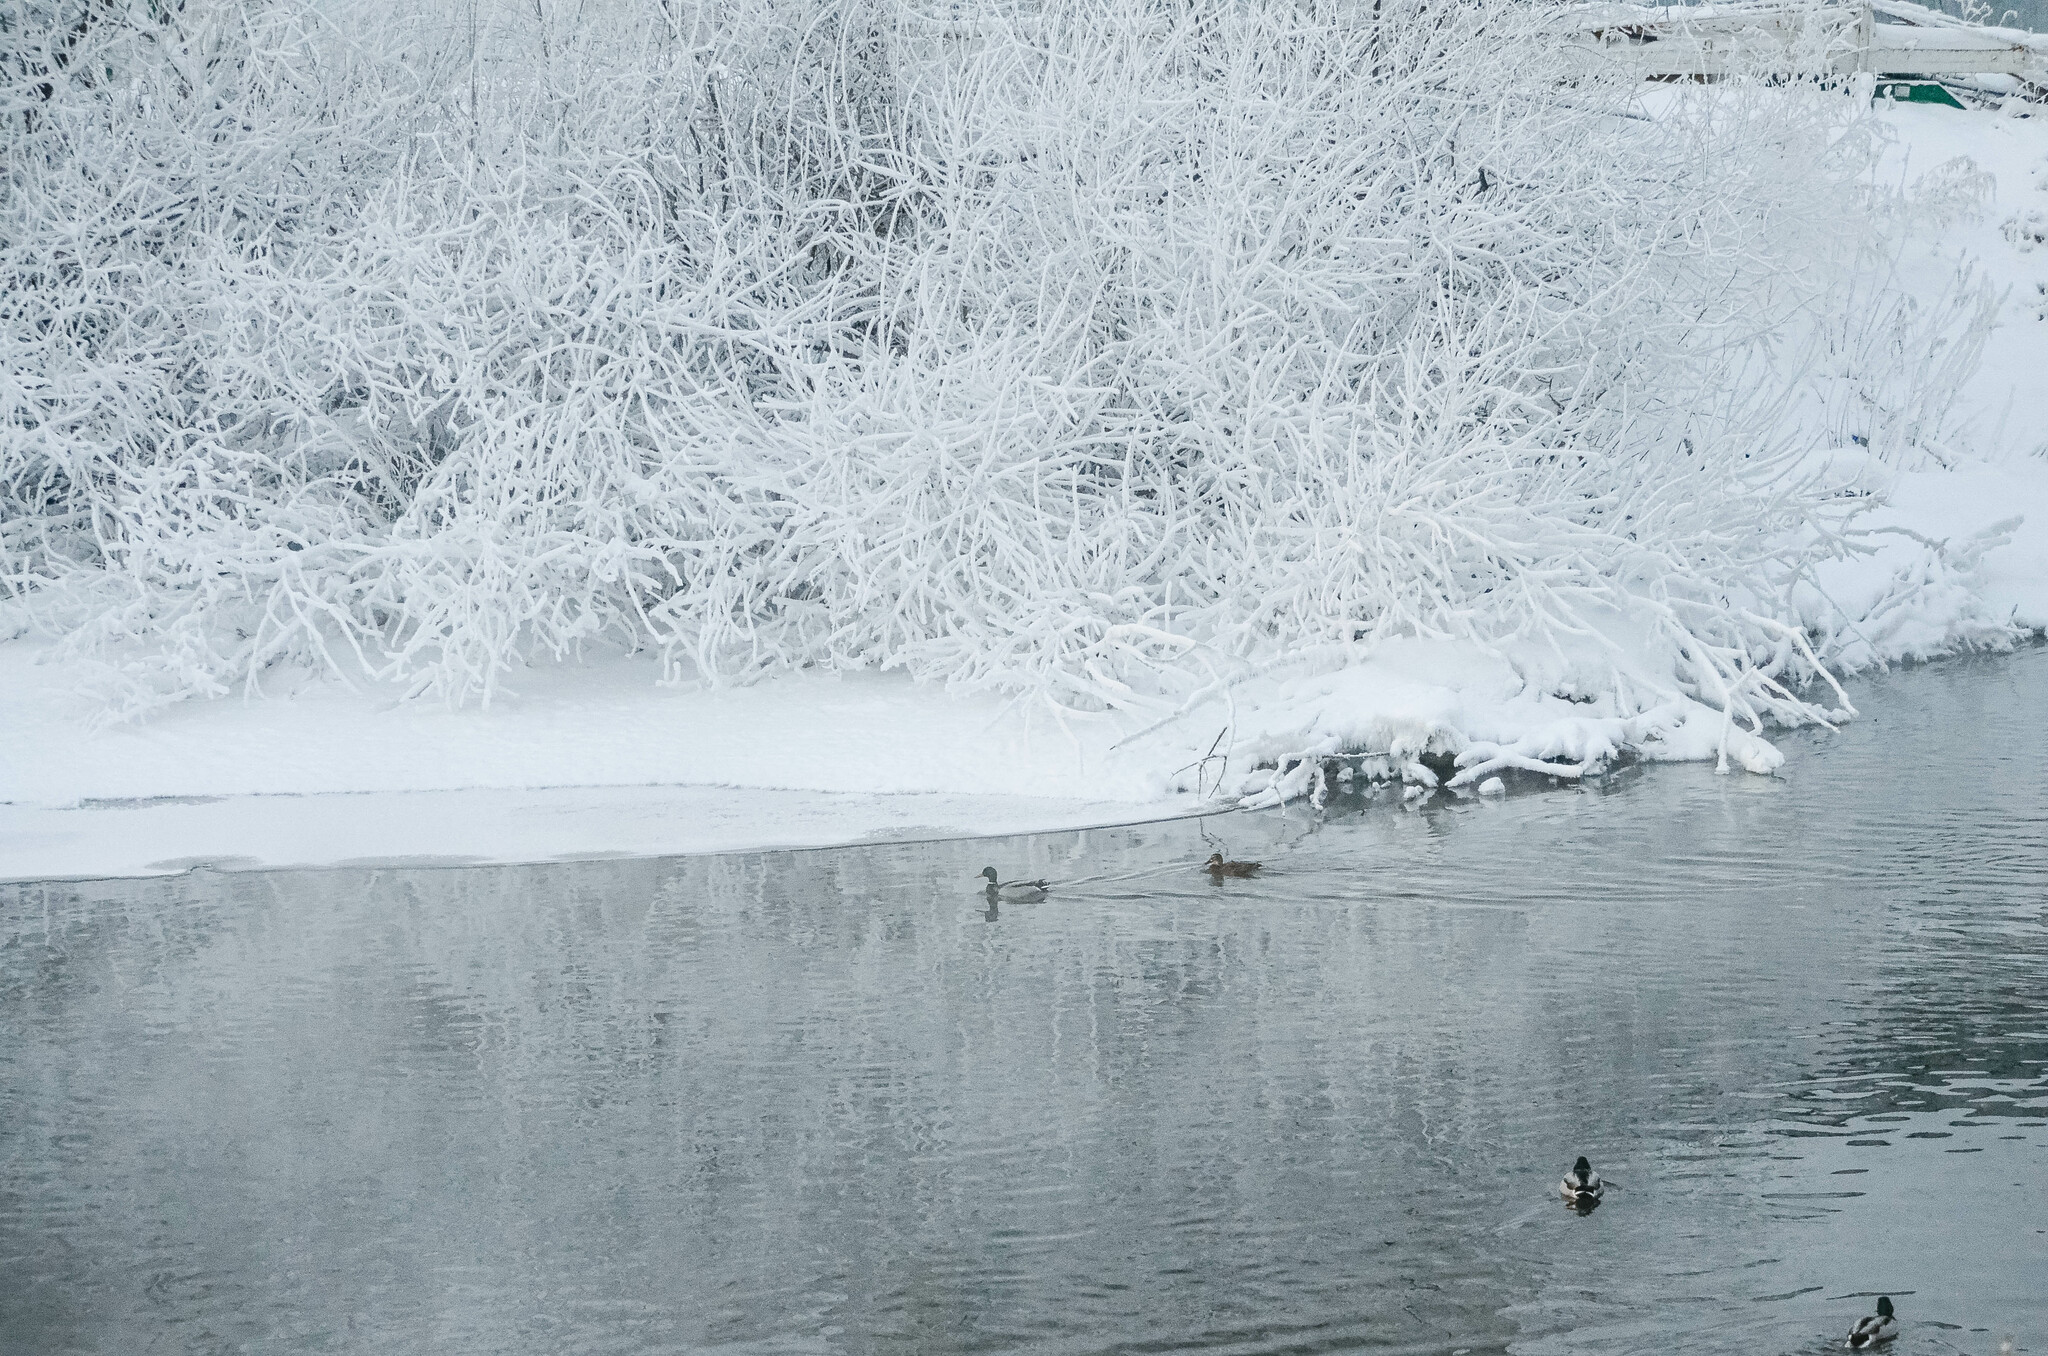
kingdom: Animalia
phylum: Chordata
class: Aves
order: Anseriformes
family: Anatidae
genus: Anas
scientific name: Anas platyrhynchos
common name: Mallard
